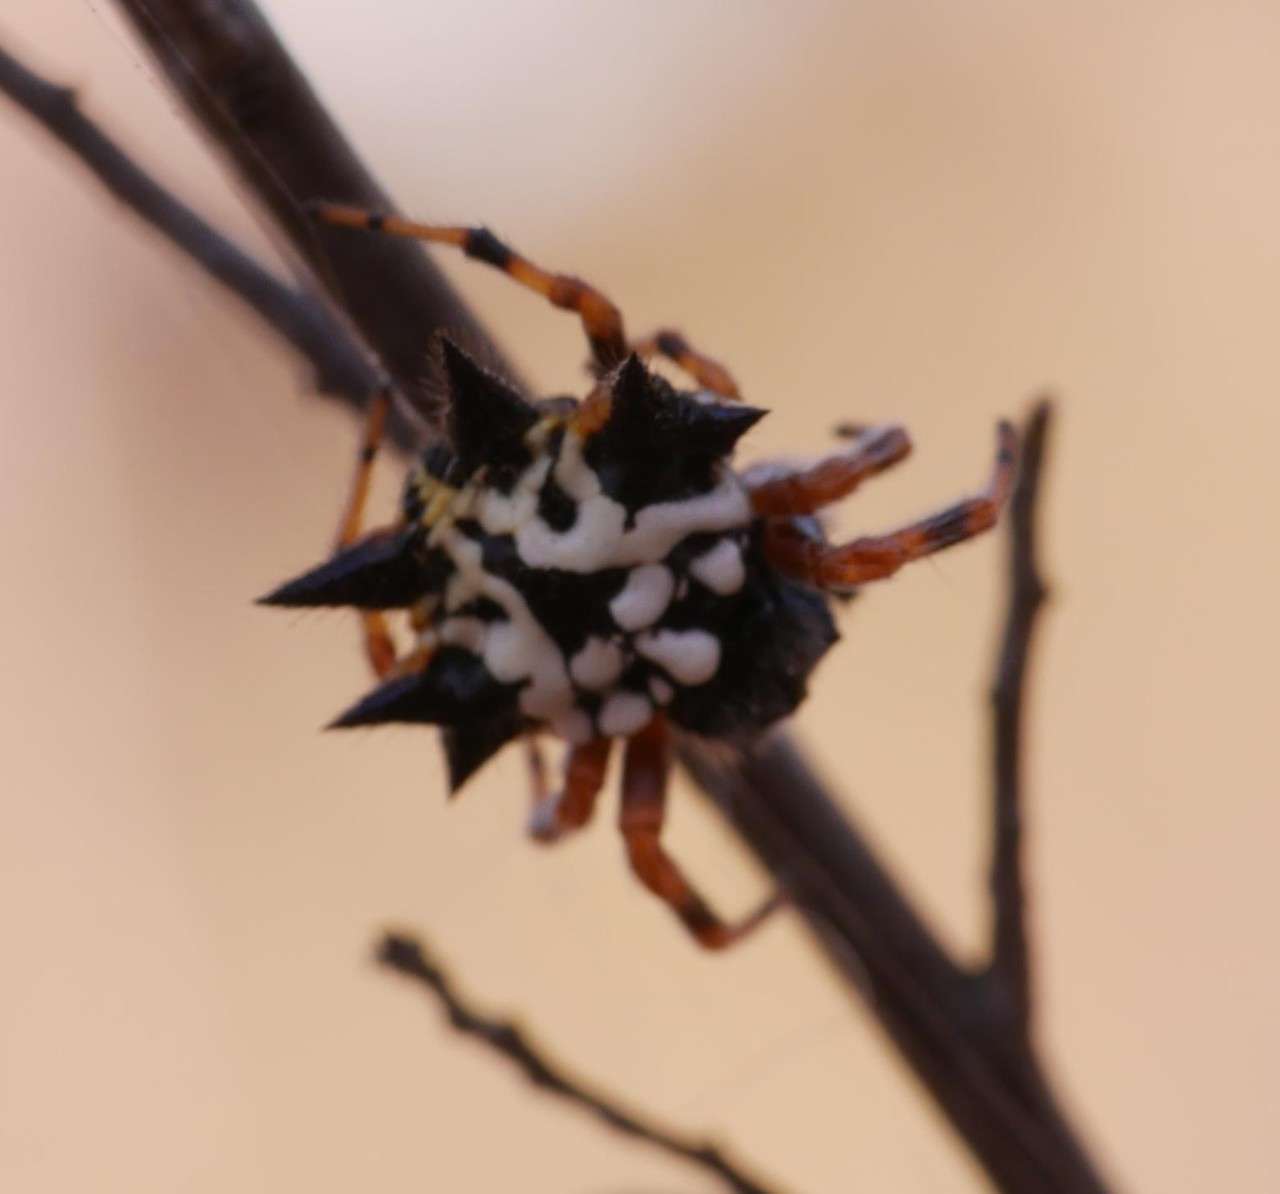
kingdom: Animalia
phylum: Arthropoda
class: Arachnida
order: Araneae
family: Araneidae
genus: Austracantha
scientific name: Austracantha minax
